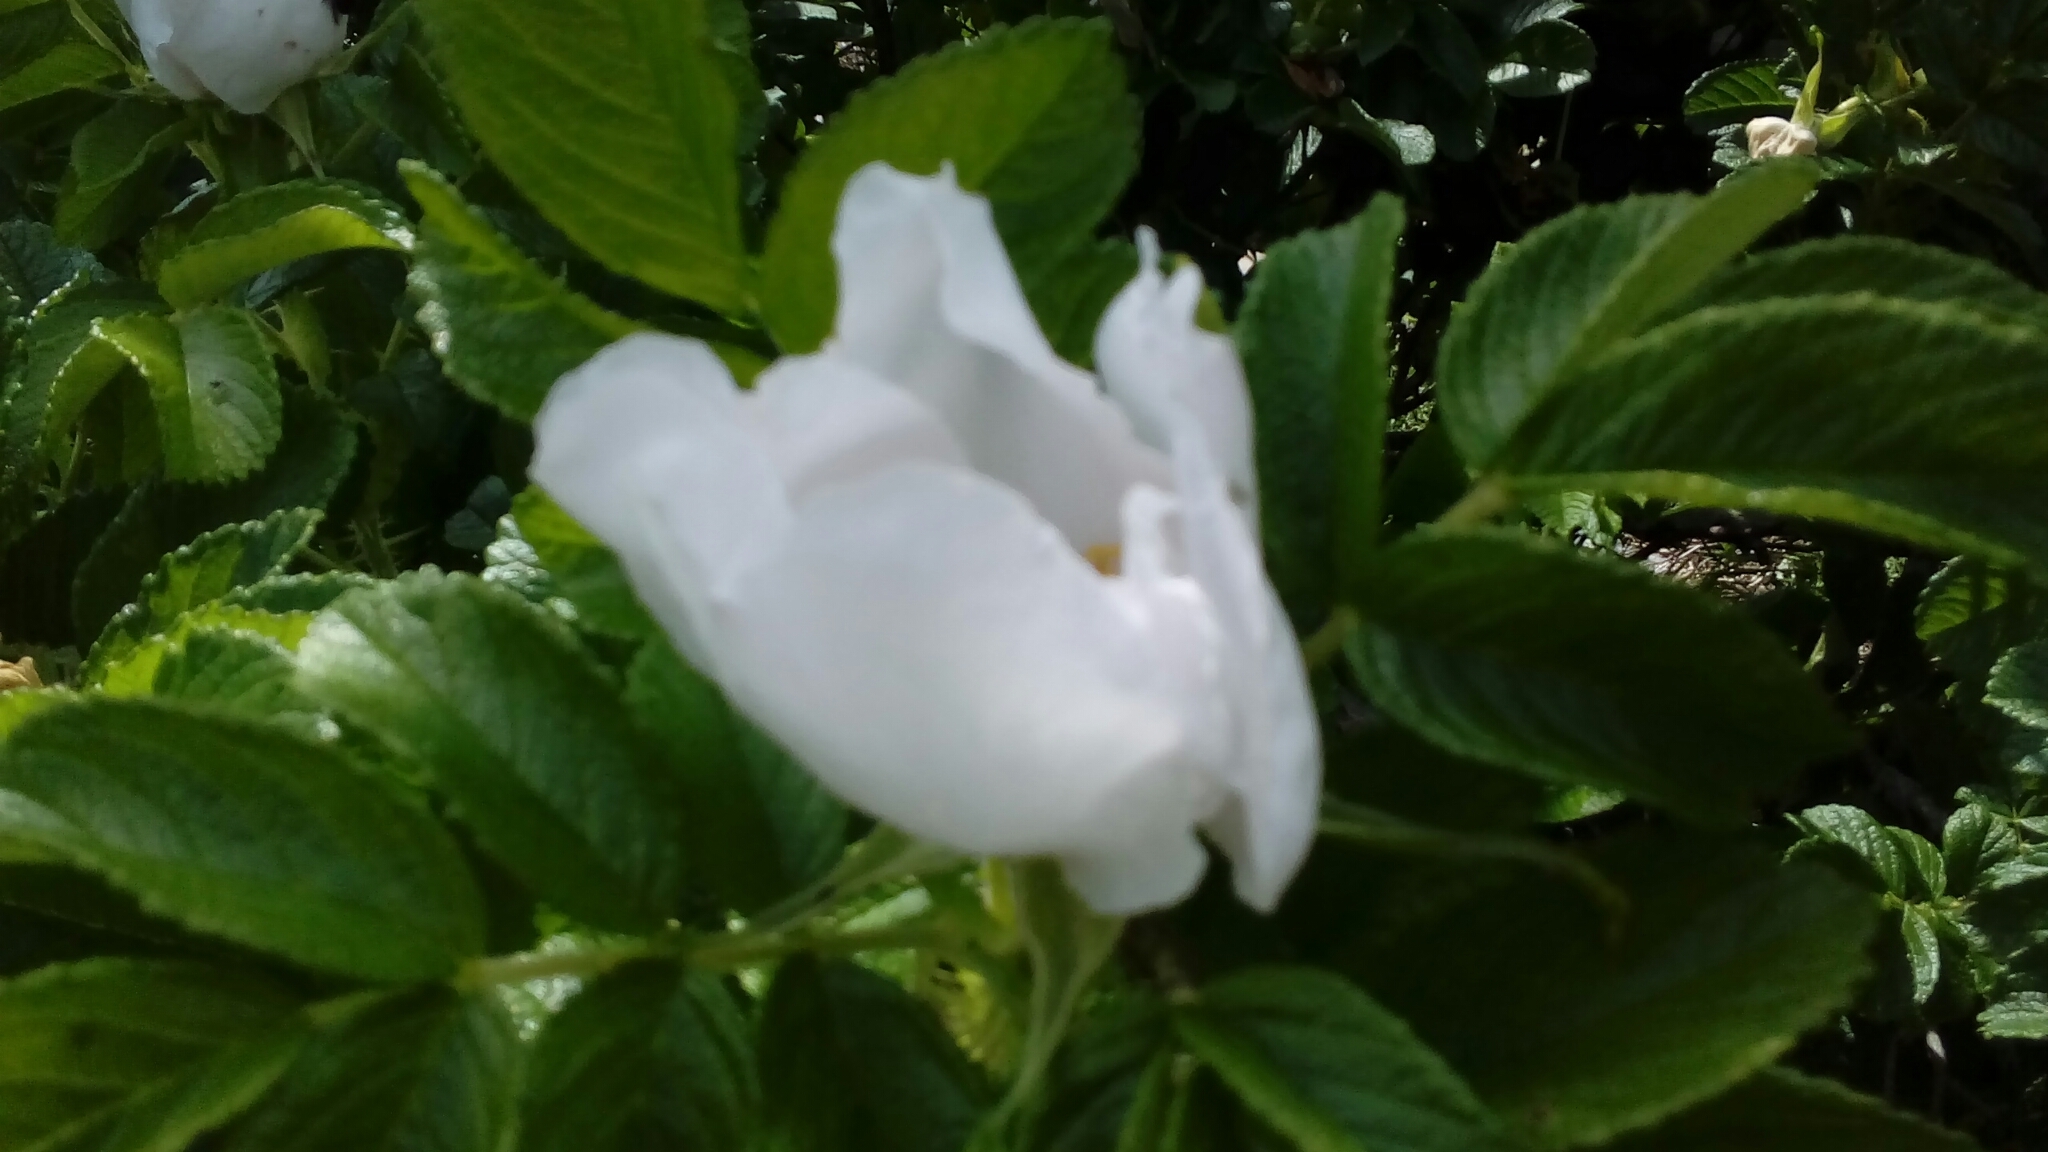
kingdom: Plantae
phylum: Tracheophyta
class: Magnoliopsida
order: Rosales
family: Rosaceae
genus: Rosa
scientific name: Rosa rugosa
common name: Japanese rose
